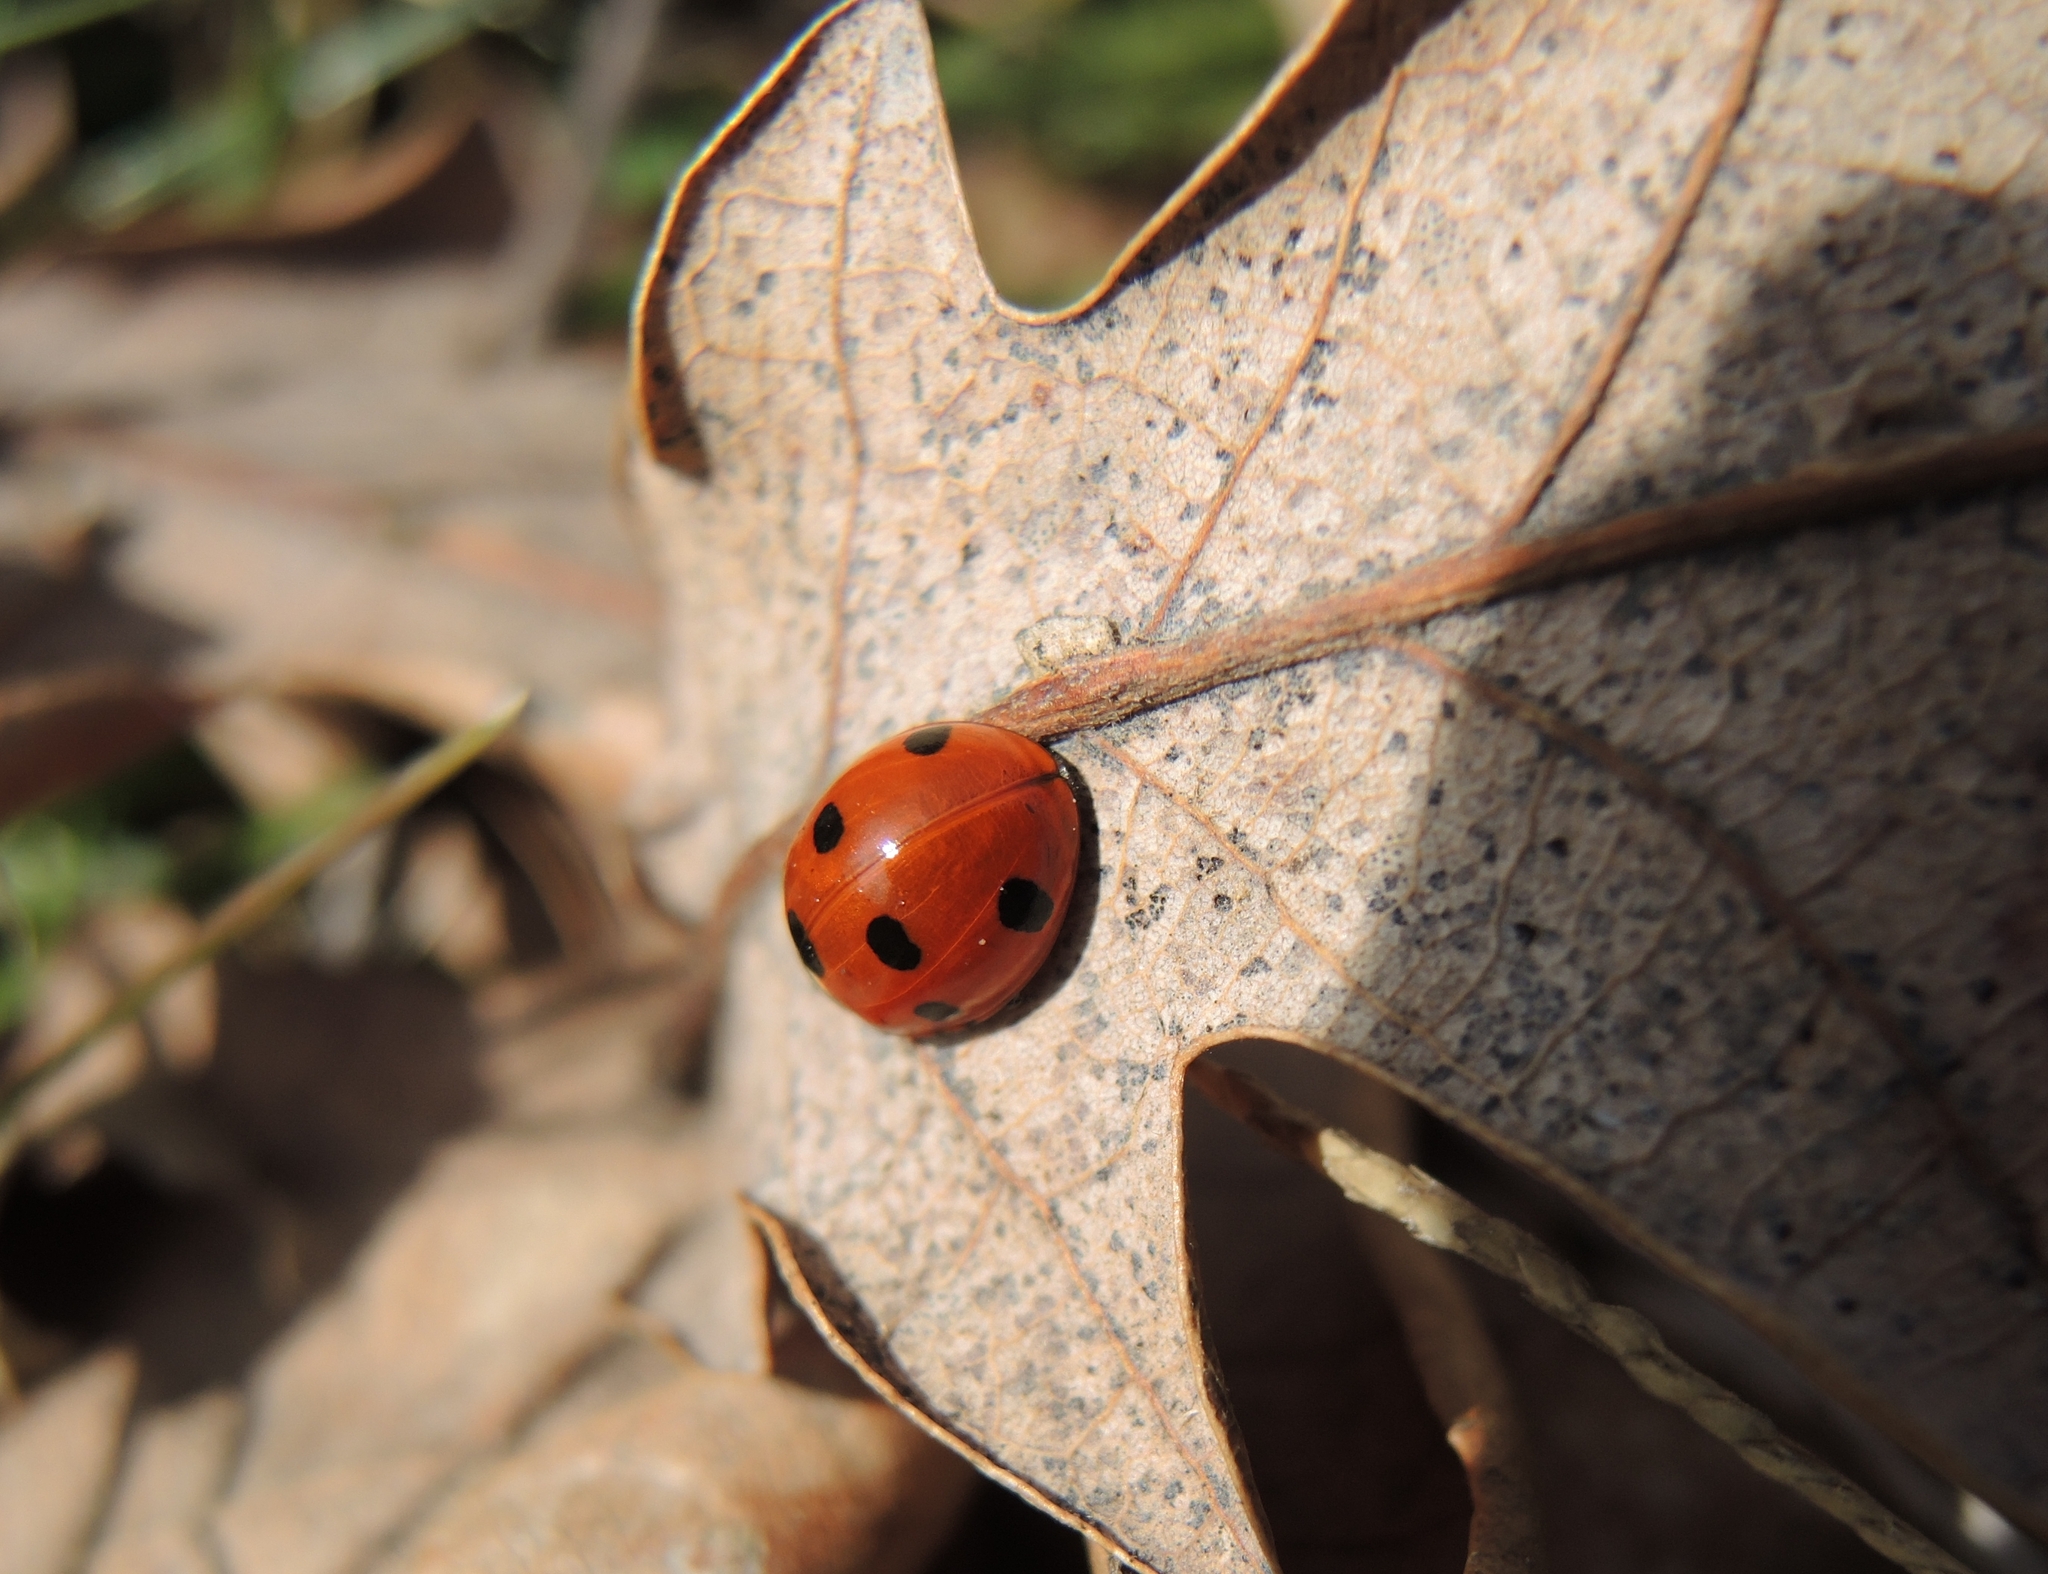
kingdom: Animalia
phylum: Arthropoda
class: Insecta
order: Coleoptera
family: Coccinellidae
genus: Coccinella
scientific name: Coccinella septempunctata
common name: Sevenspotted lady beetle
